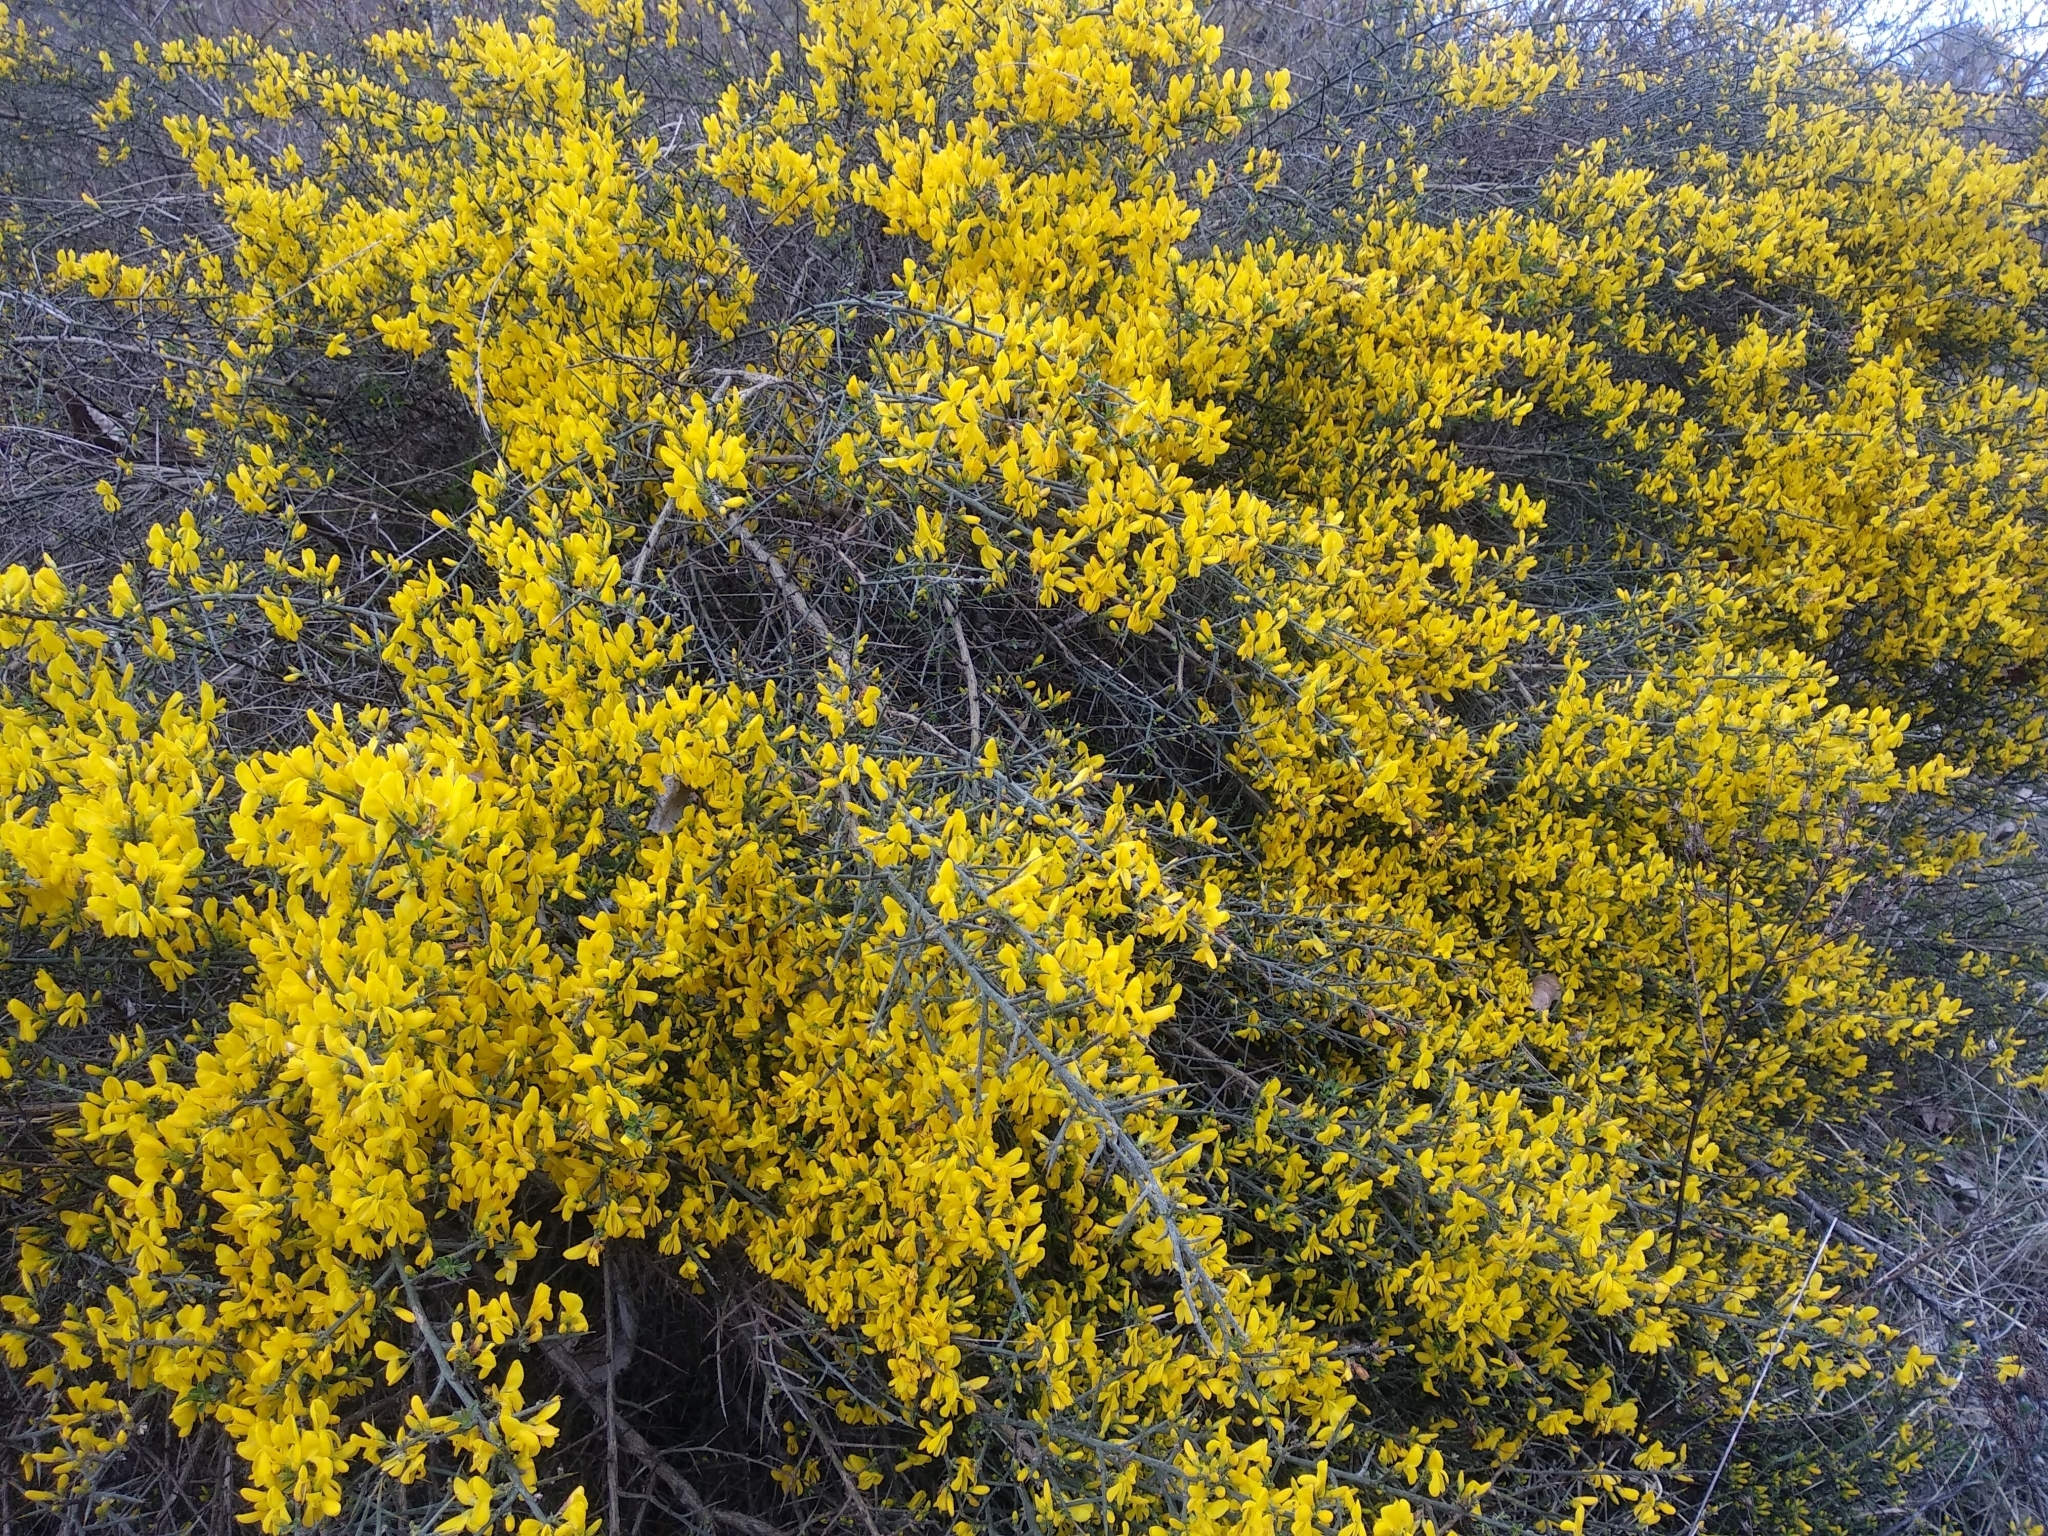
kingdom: Plantae
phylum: Tracheophyta
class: Magnoliopsida
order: Fabales
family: Fabaceae
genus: Genista
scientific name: Genista scorpius
